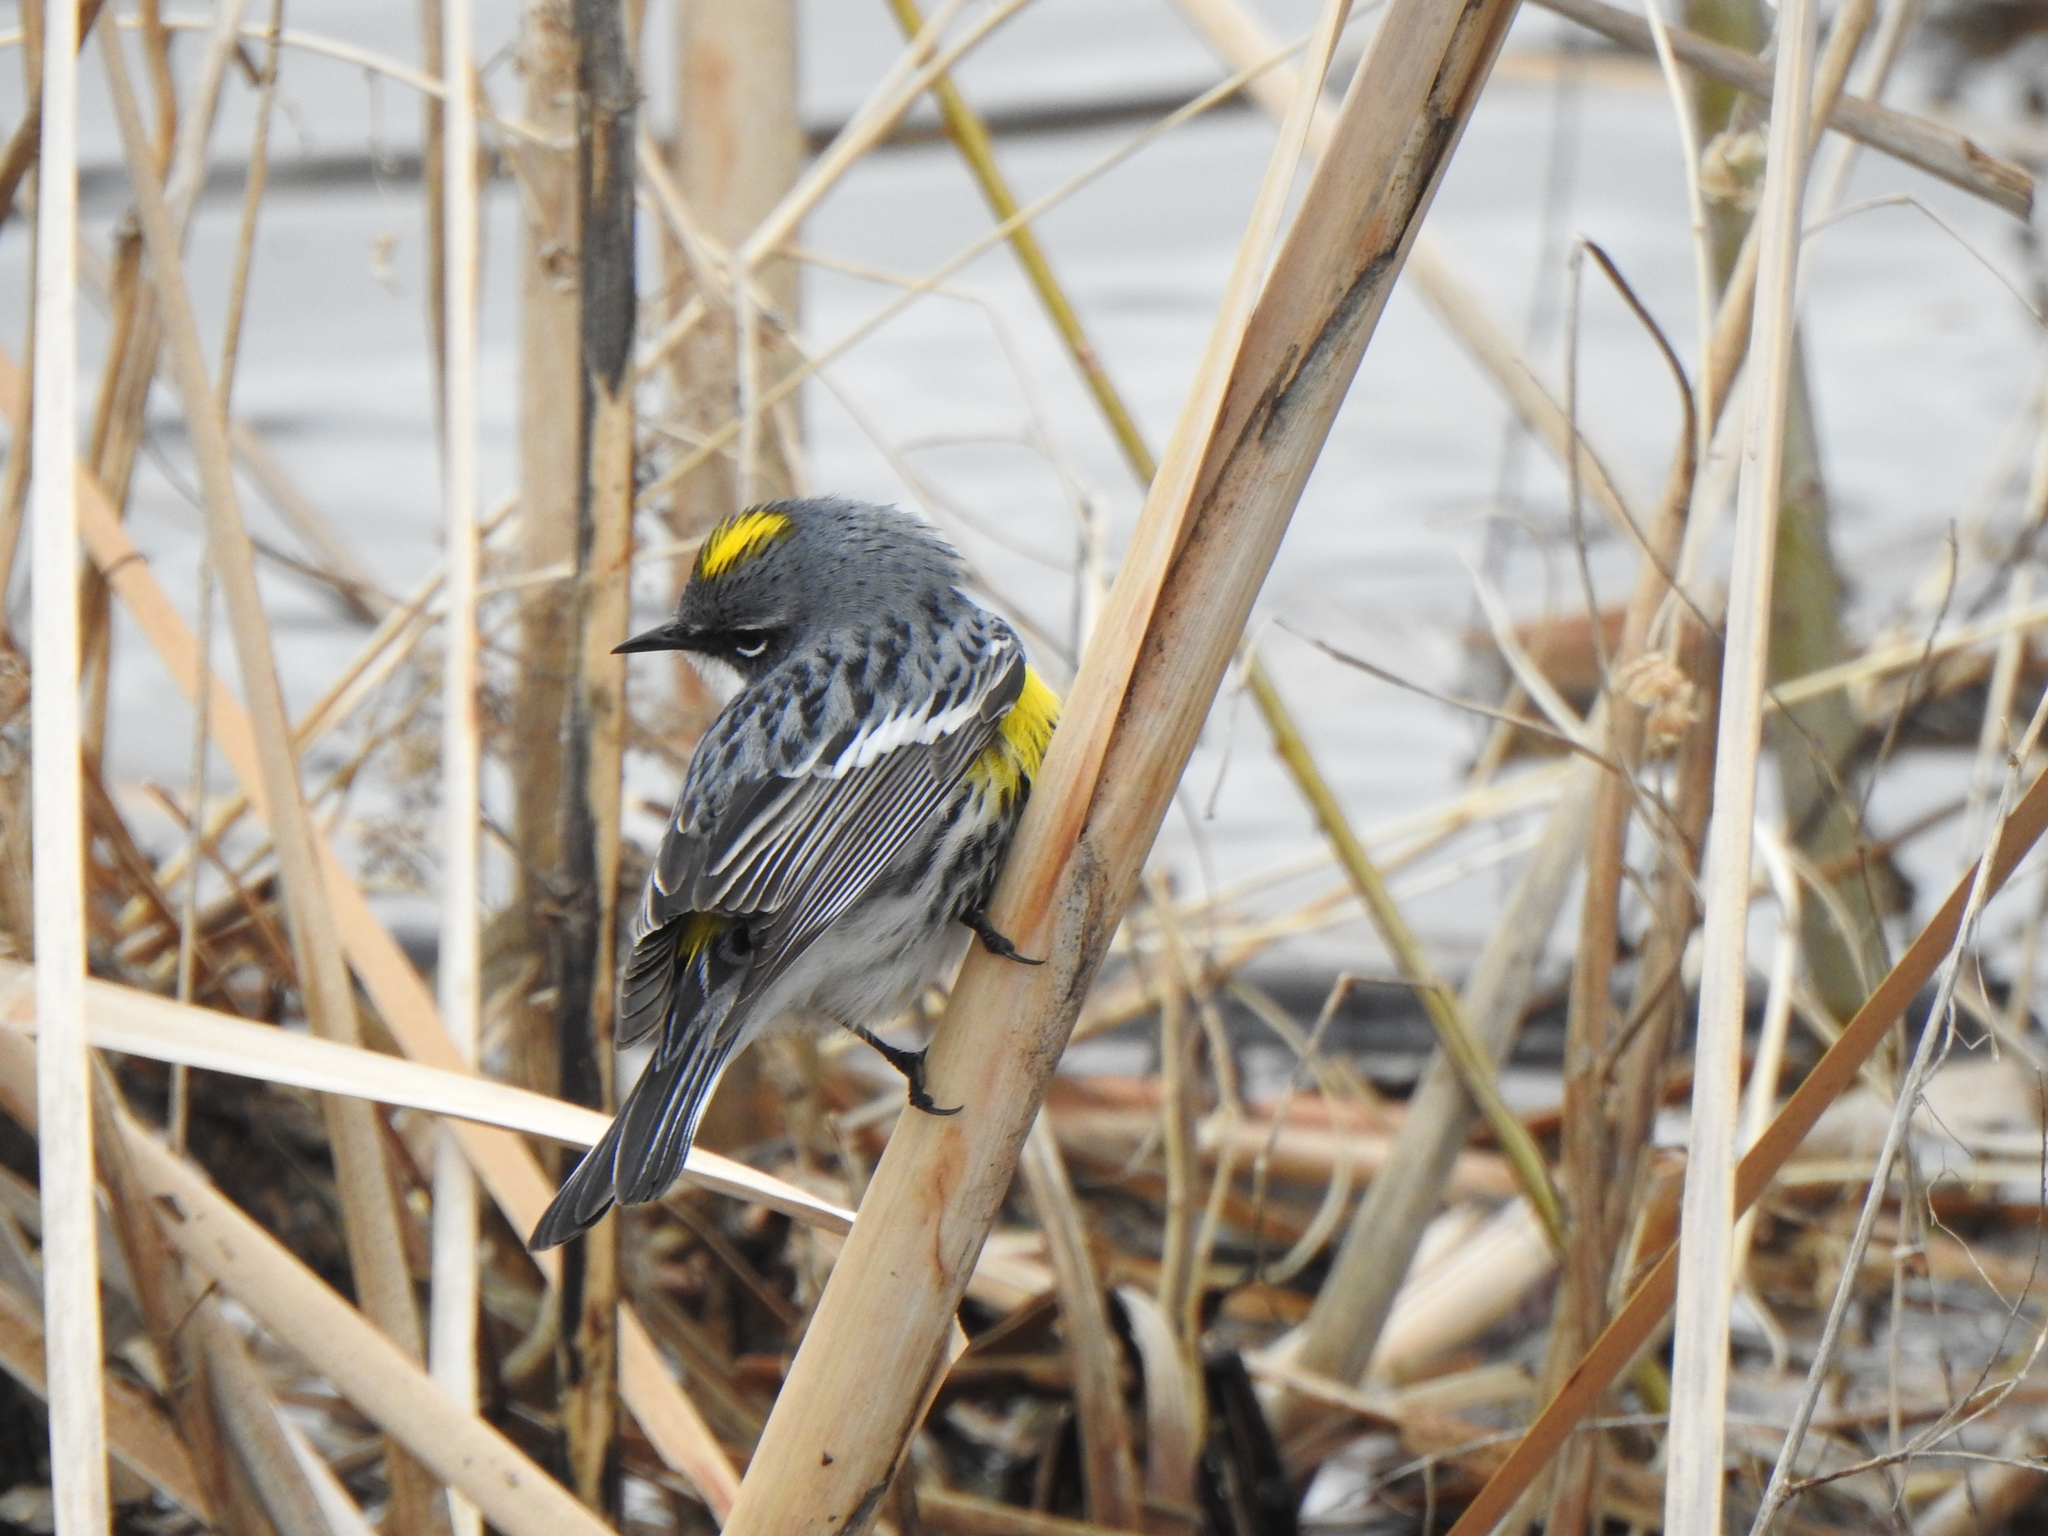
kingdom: Animalia
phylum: Chordata
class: Aves
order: Passeriformes
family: Parulidae
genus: Setophaga
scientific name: Setophaga coronata
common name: Myrtle warbler
